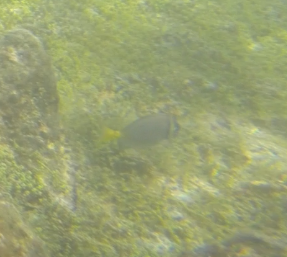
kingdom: Animalia
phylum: Chordata
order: Perciformes
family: Acanthuridae
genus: Prionurus
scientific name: Prionurus laticlavius
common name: Razor surgeonfish
